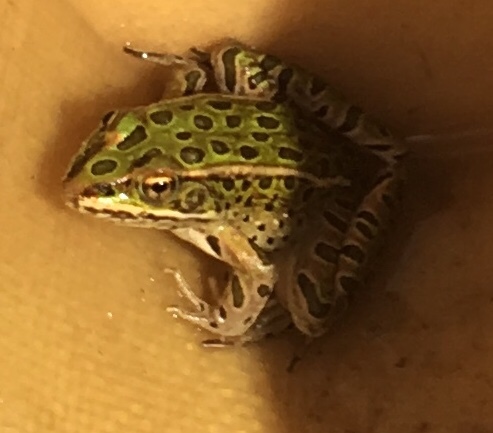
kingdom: Animalia
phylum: Chordata
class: Amphibia
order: Anura
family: Ranidae
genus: Lithobates
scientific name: Lithobates pipiens
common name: Northern leopard frog
